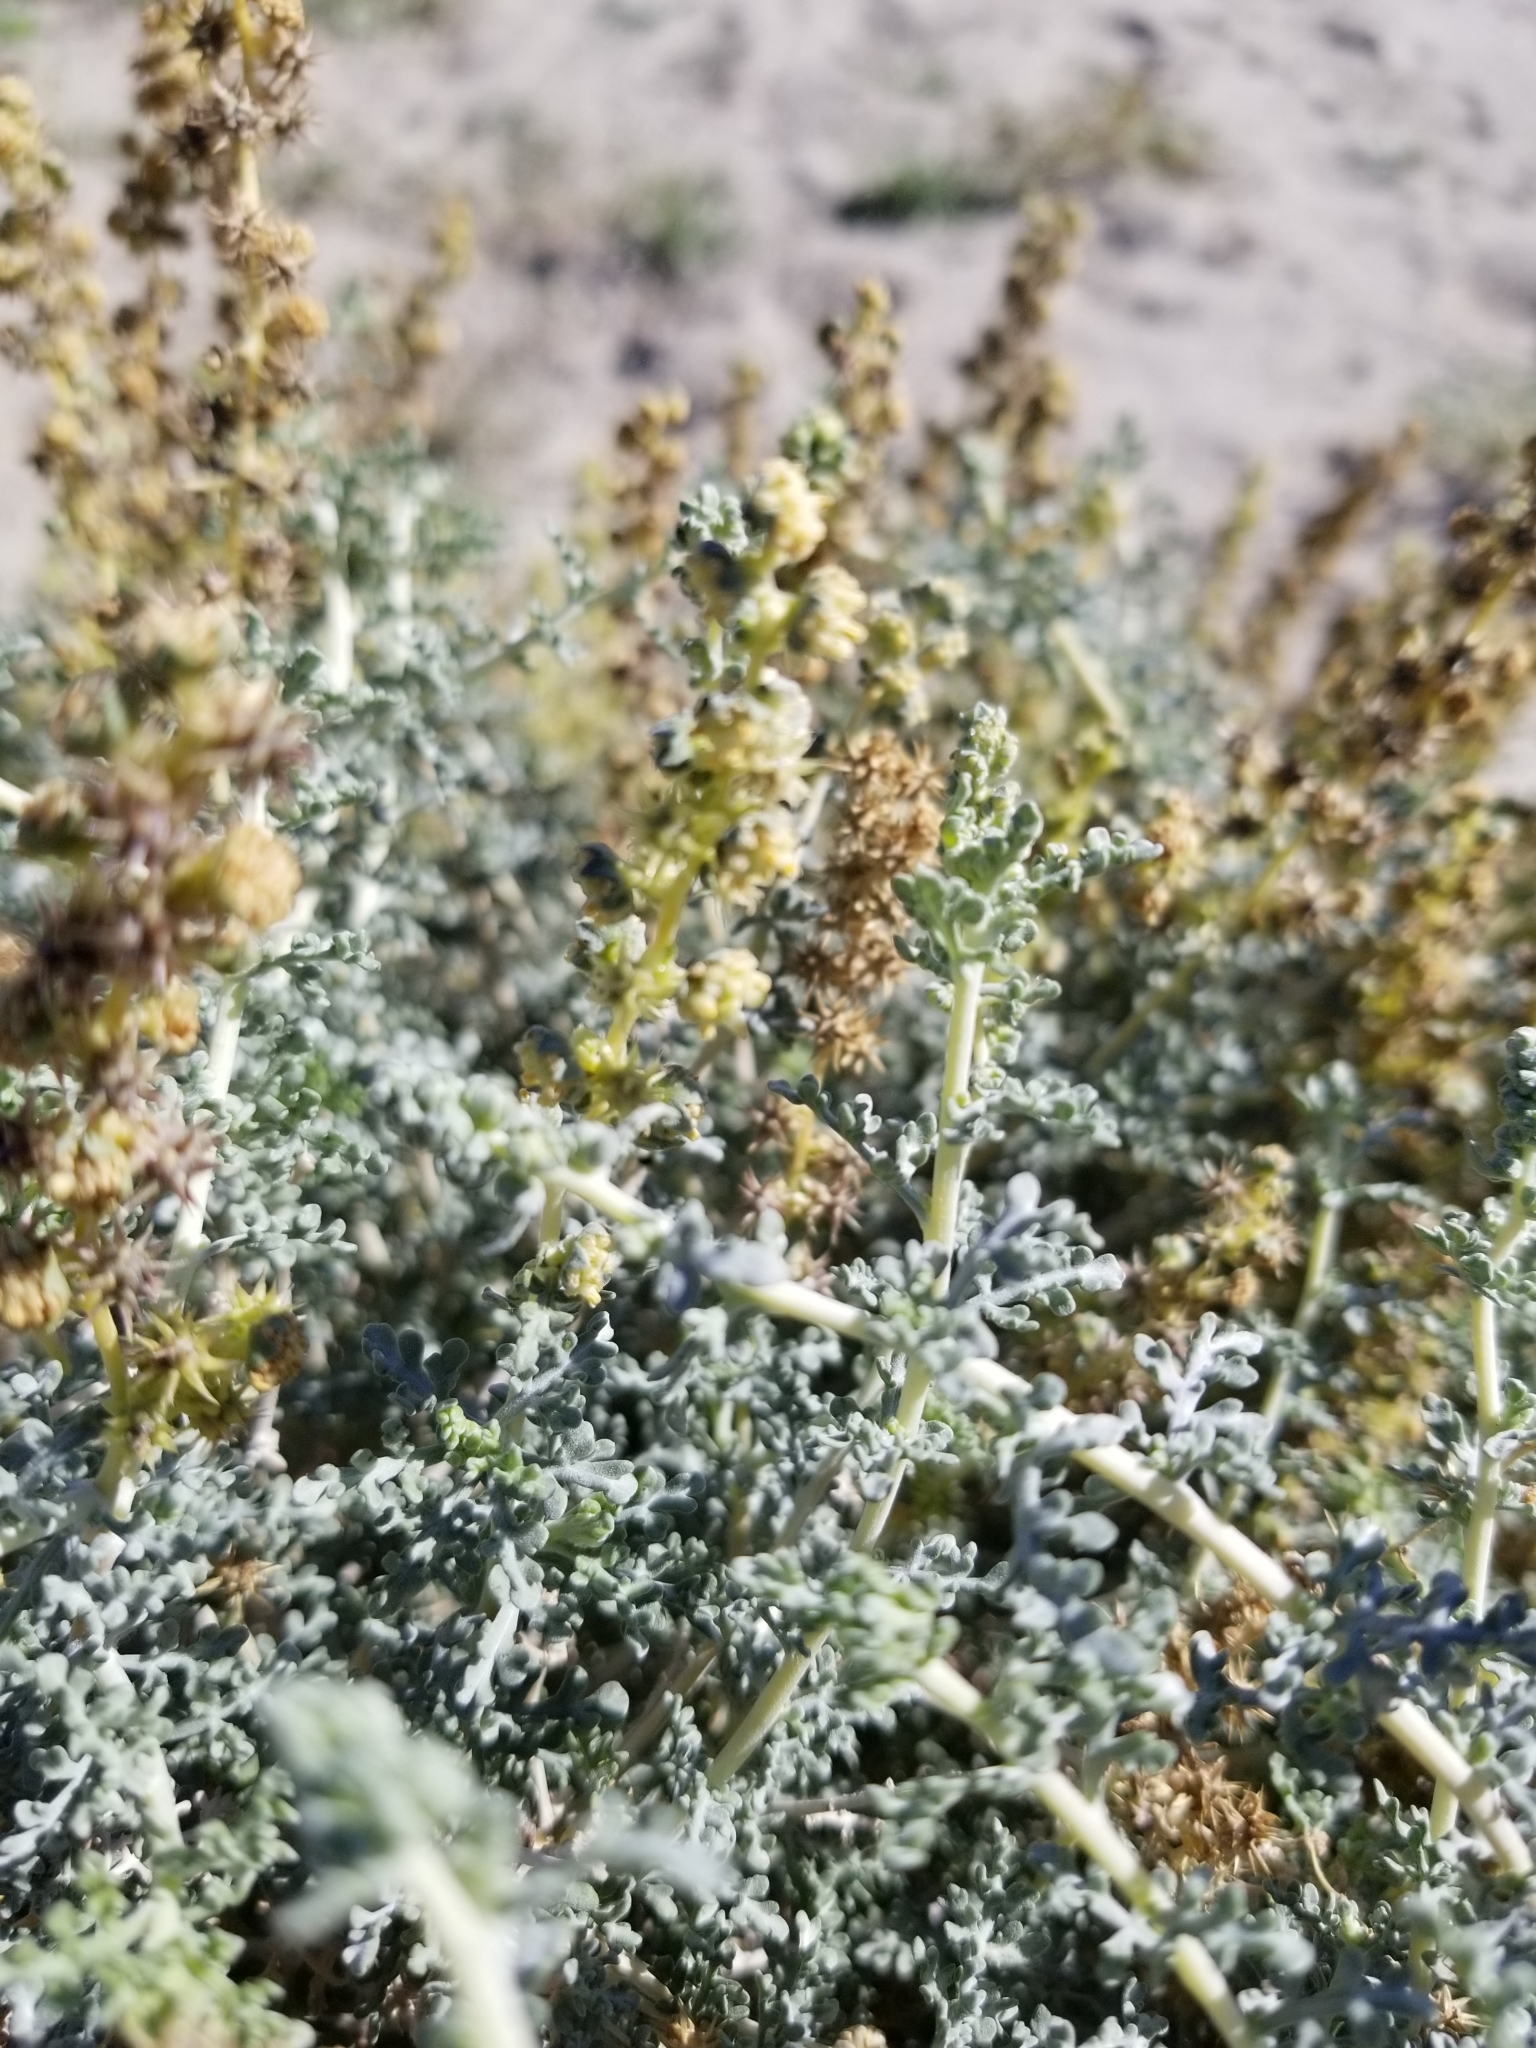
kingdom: Plantae
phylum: Tracheophyta
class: Magnoliopsida
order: Asterales
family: Asteraceae
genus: Ambrosia
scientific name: Ambrosia dumosa
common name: Bur-sage
